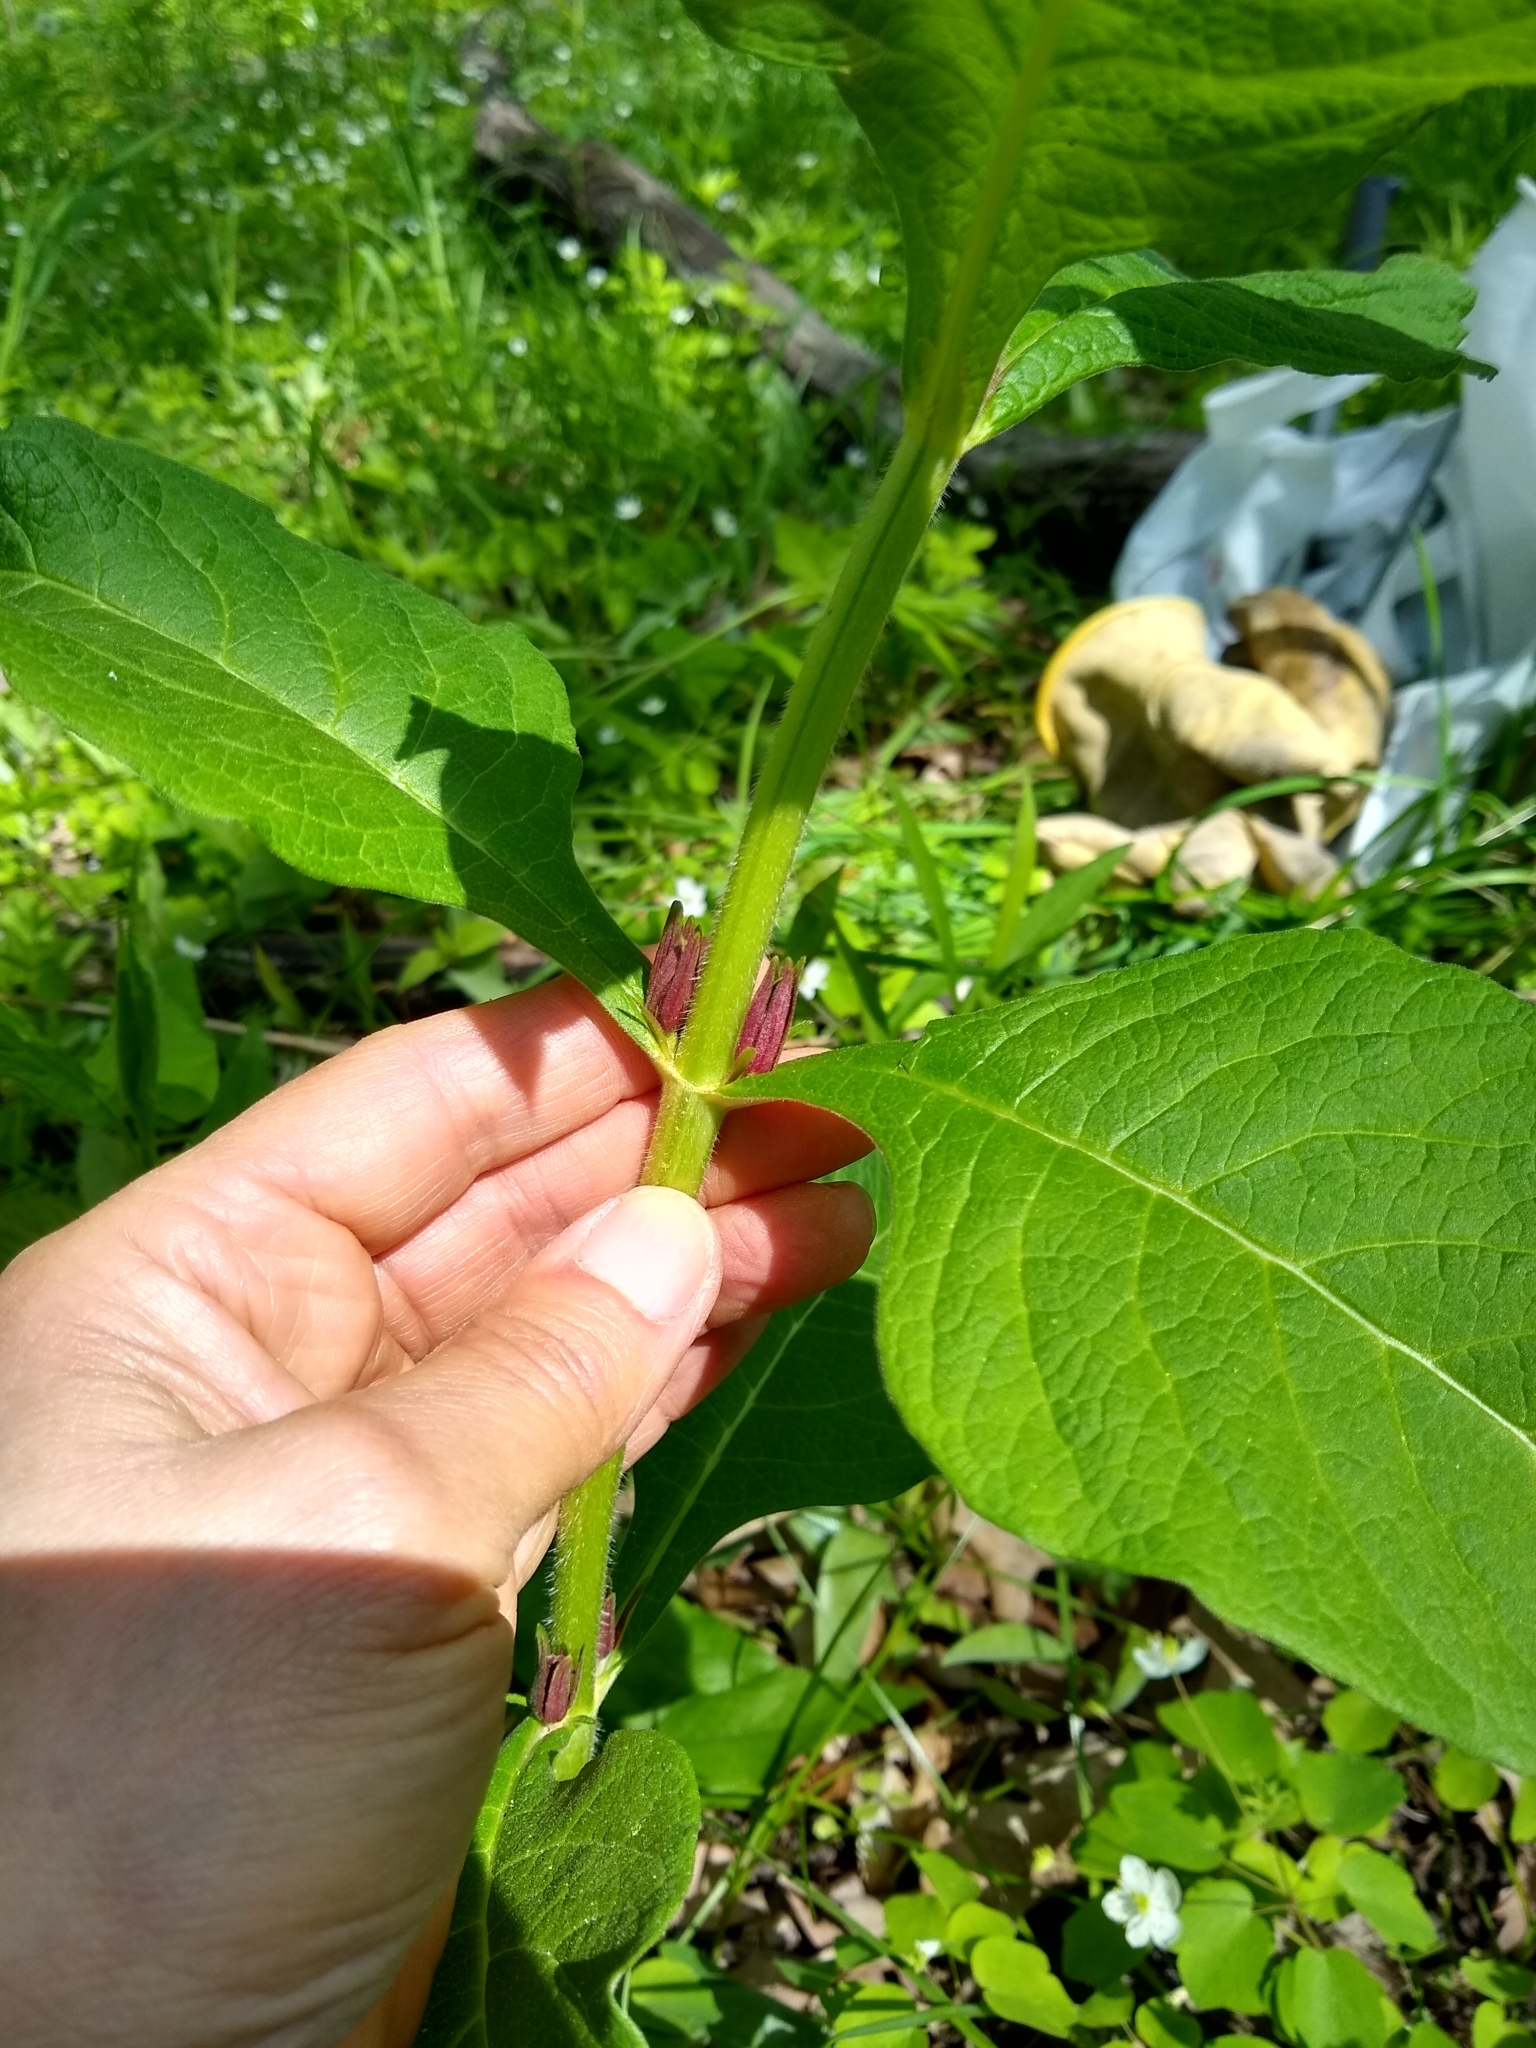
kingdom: Plantae
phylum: Tracheophyta
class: Magnoliopsida
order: Dipsacales
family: Caprifoliaceae
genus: Triosteum
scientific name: Triosteum aurantiacum
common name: Coffee tinker's-weed
